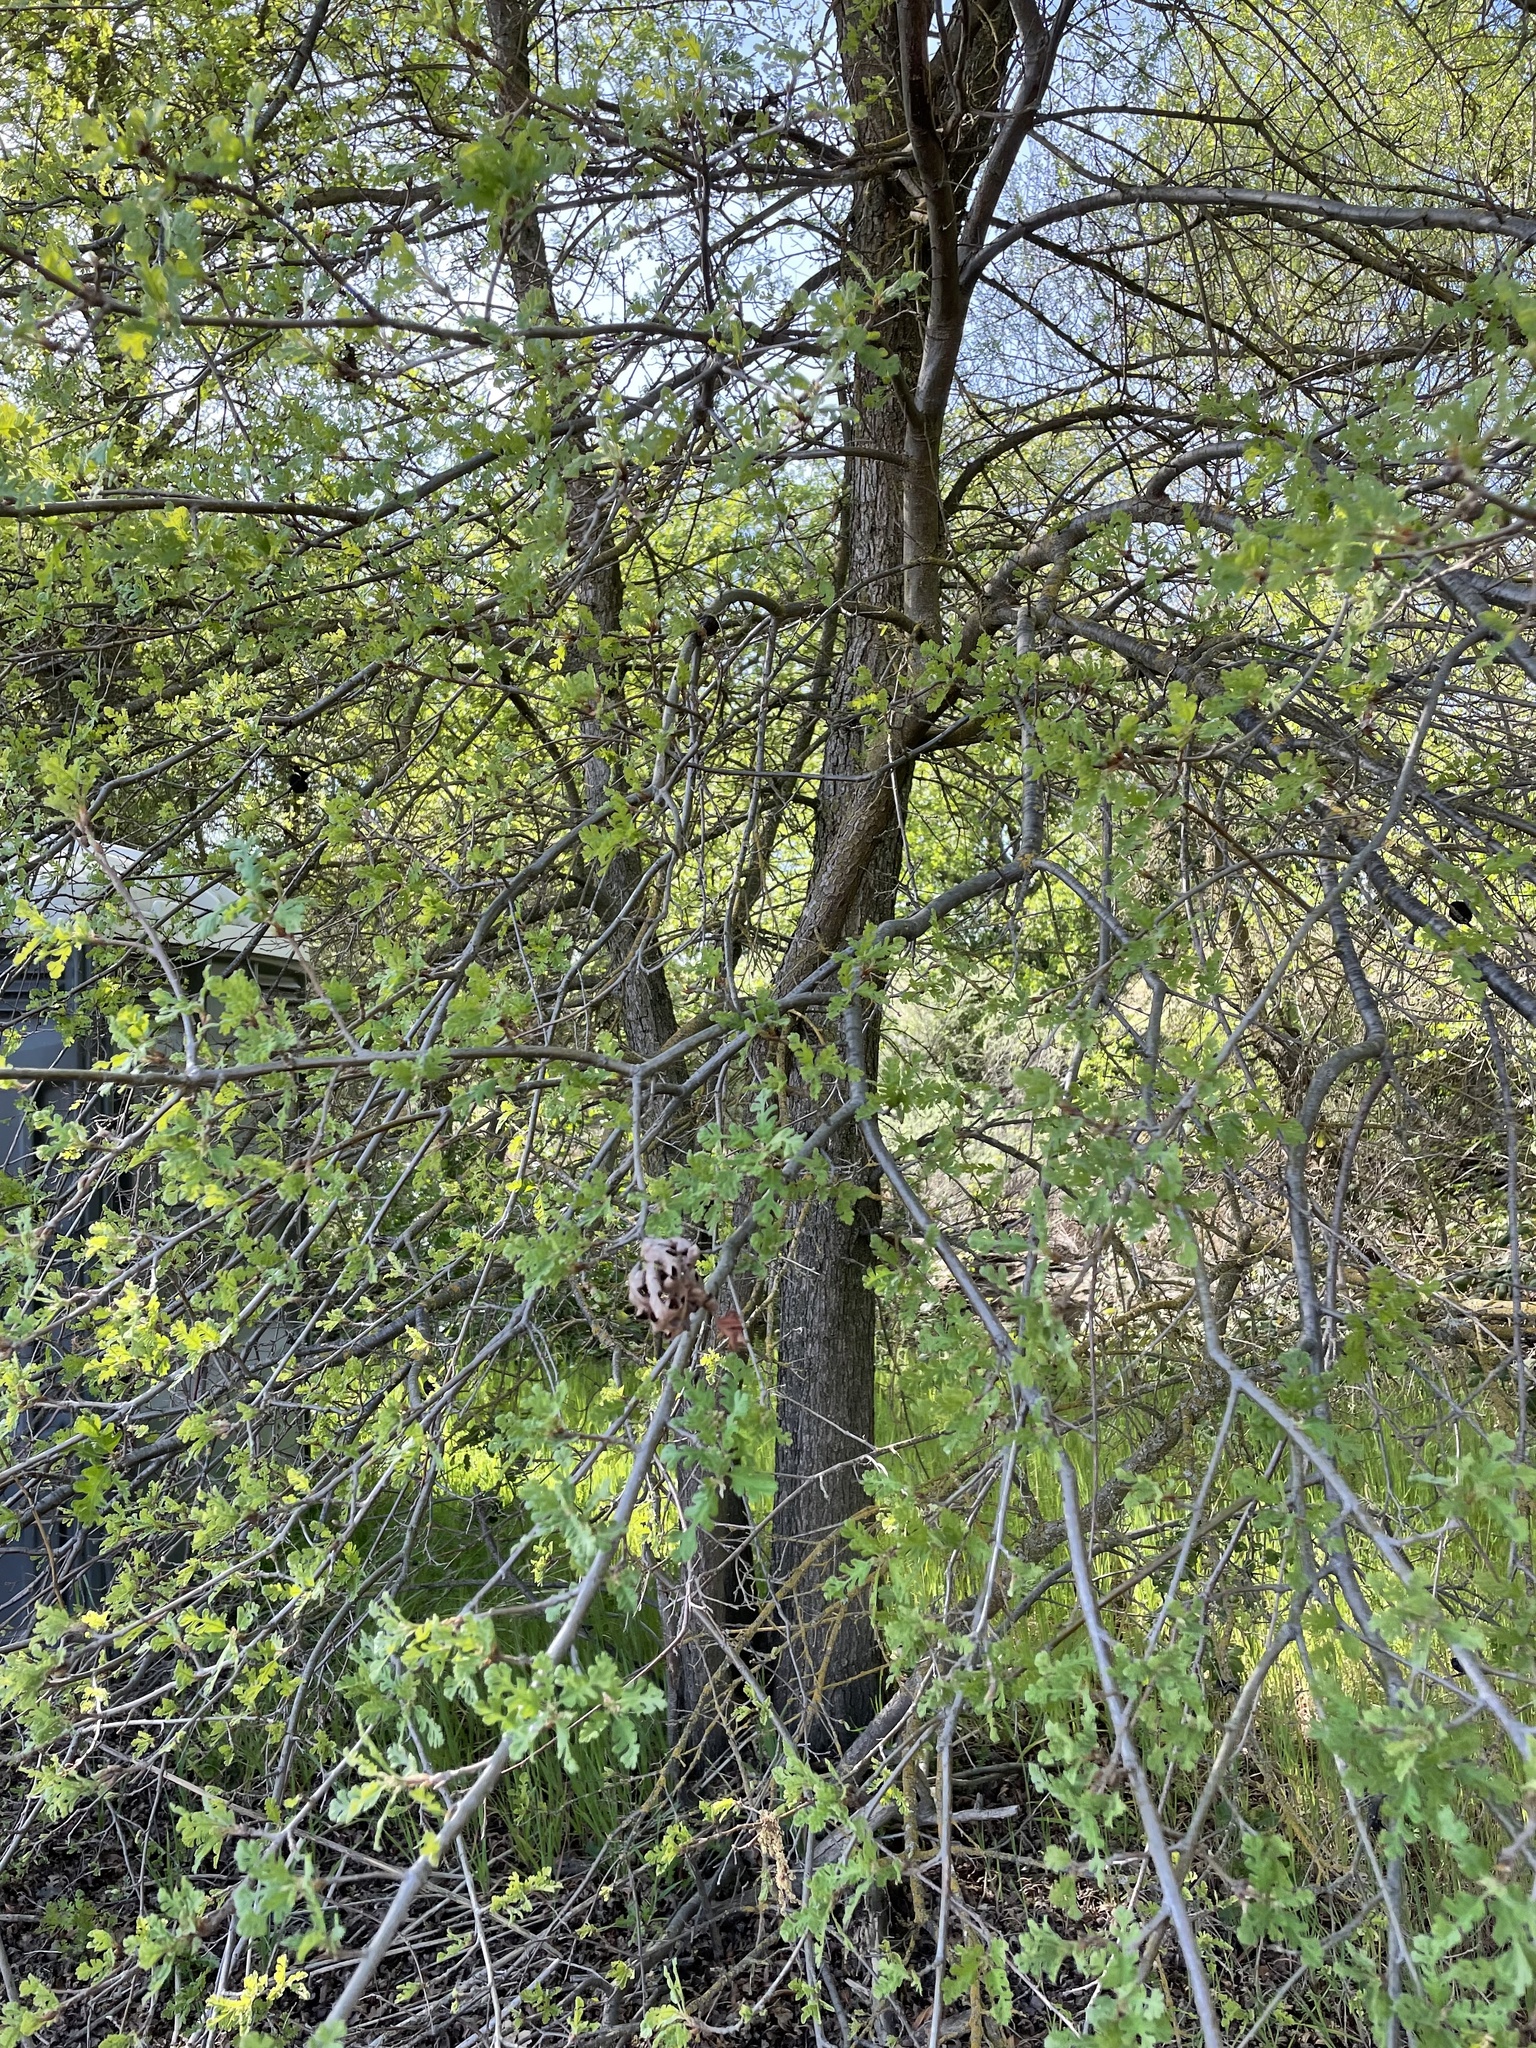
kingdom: Plantae
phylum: Tracheophyta
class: Magnoliopsida
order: Fagales
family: Fagaceae
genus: Quercus
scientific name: Quercus lobata
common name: Valley oak
